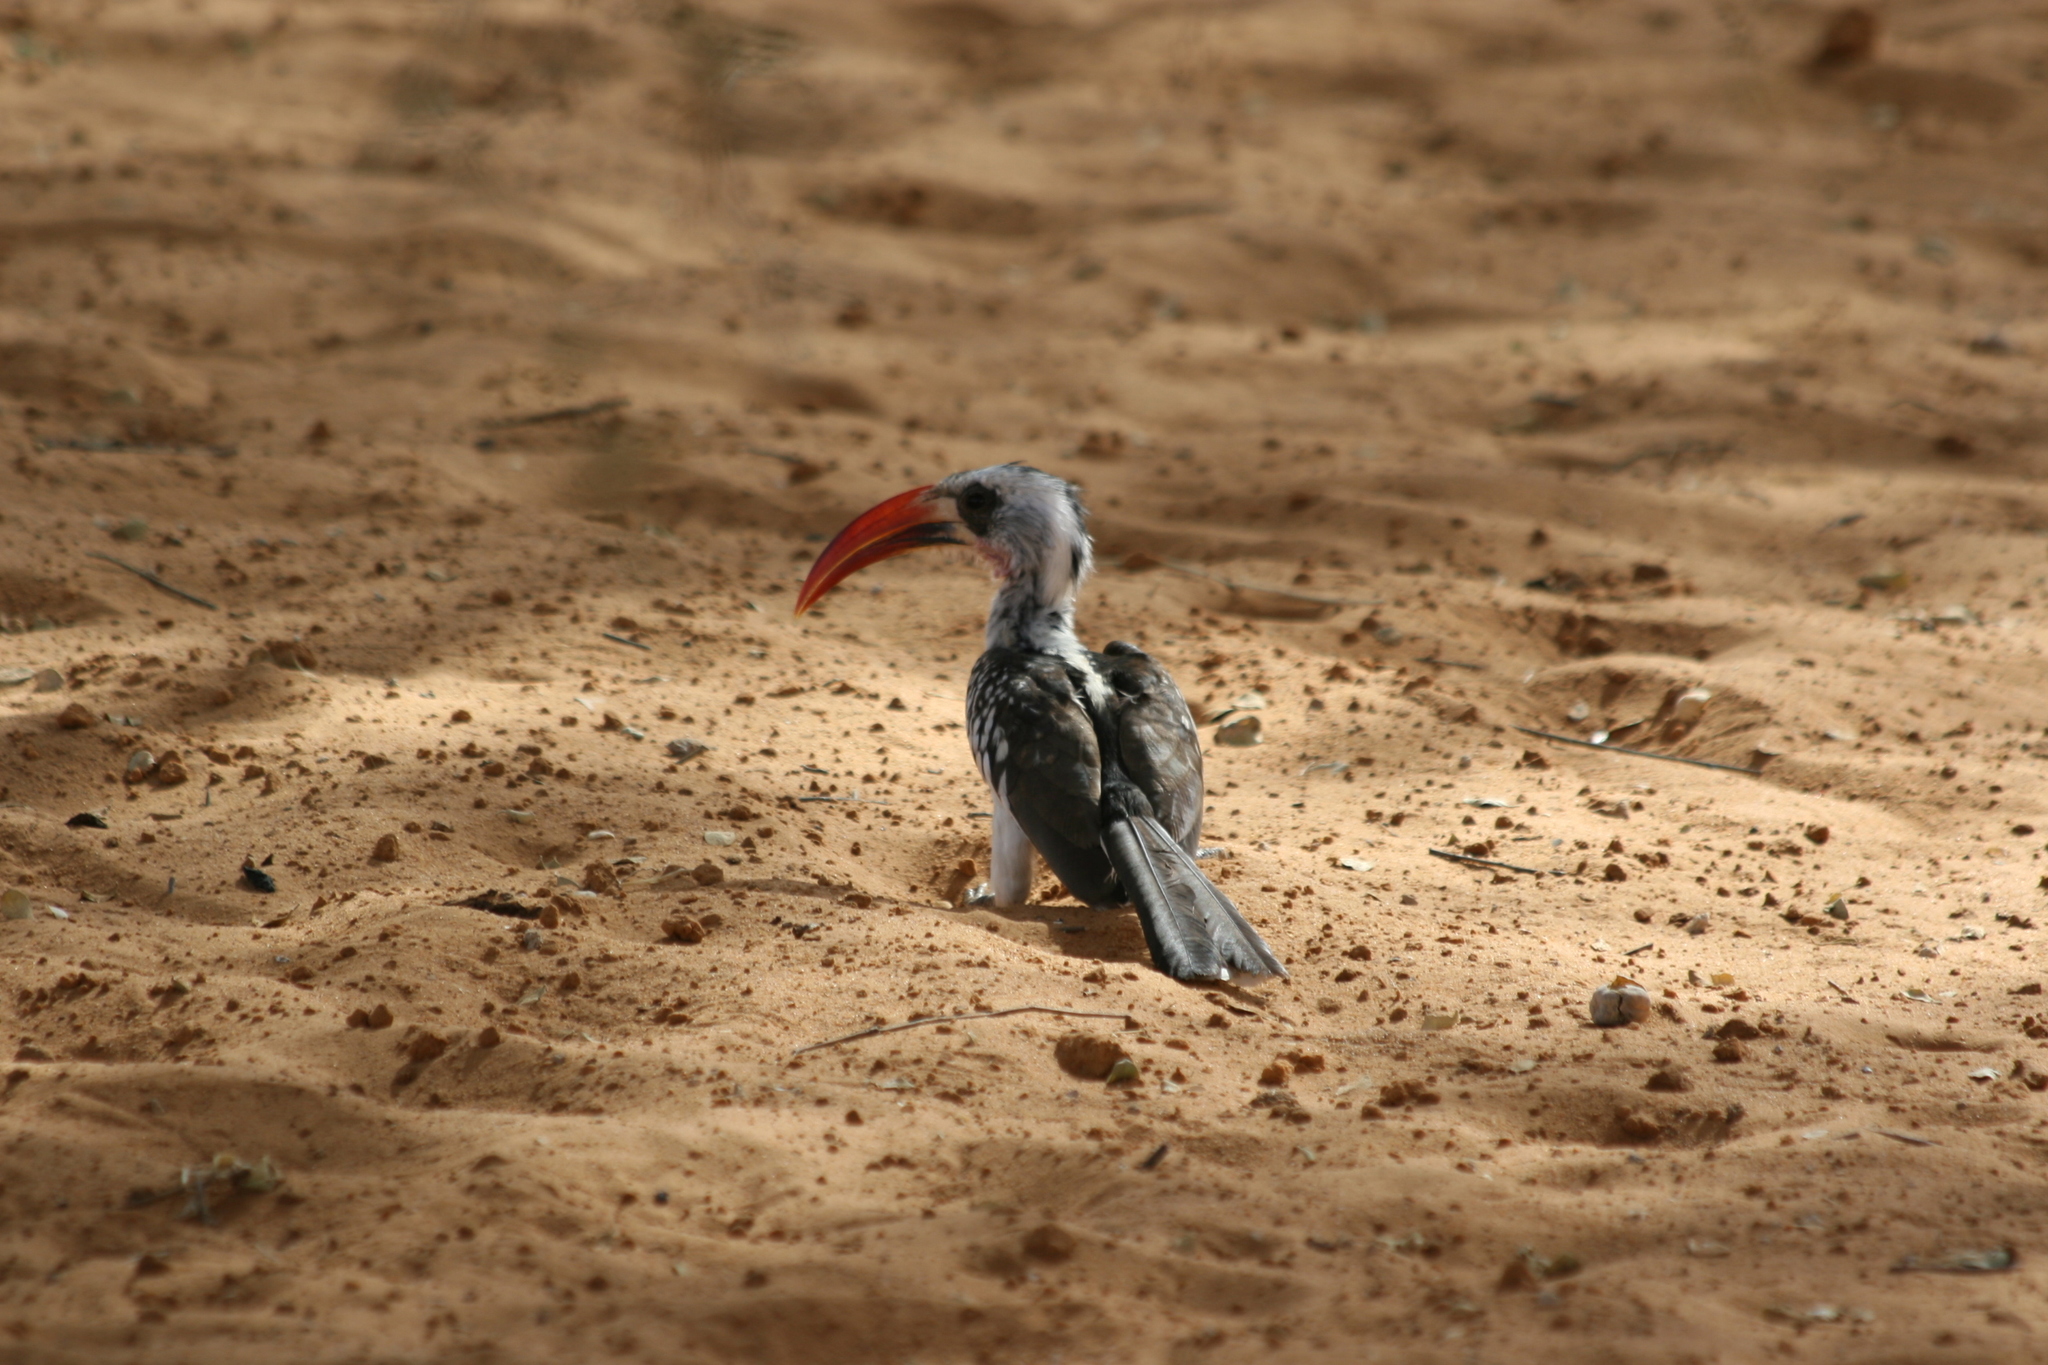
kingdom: Animalia
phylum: Chordata
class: Aves
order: Bucerotiformes
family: Bucerotidae
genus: Tockus
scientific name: Tockus kempi
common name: Western red-billed hornbill
